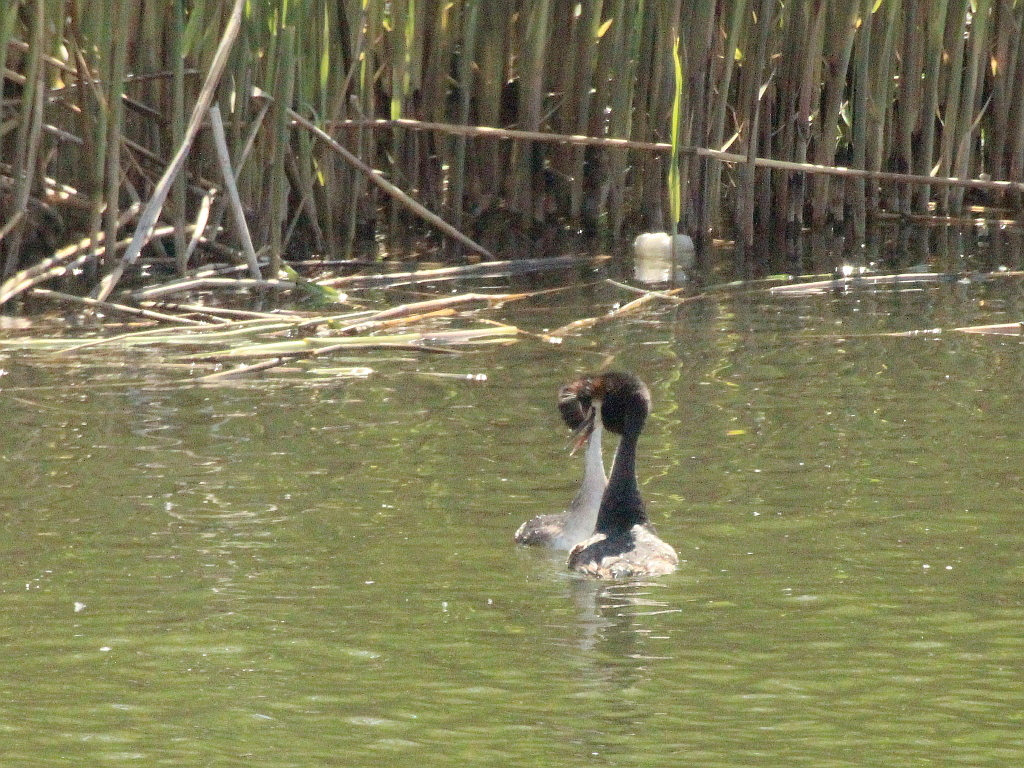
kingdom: Animalia
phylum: Chordata
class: Aves
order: Podicipediformes
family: Podicipedidae
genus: Podiceps
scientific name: Podiceps cristatus
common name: Great crested grebe
